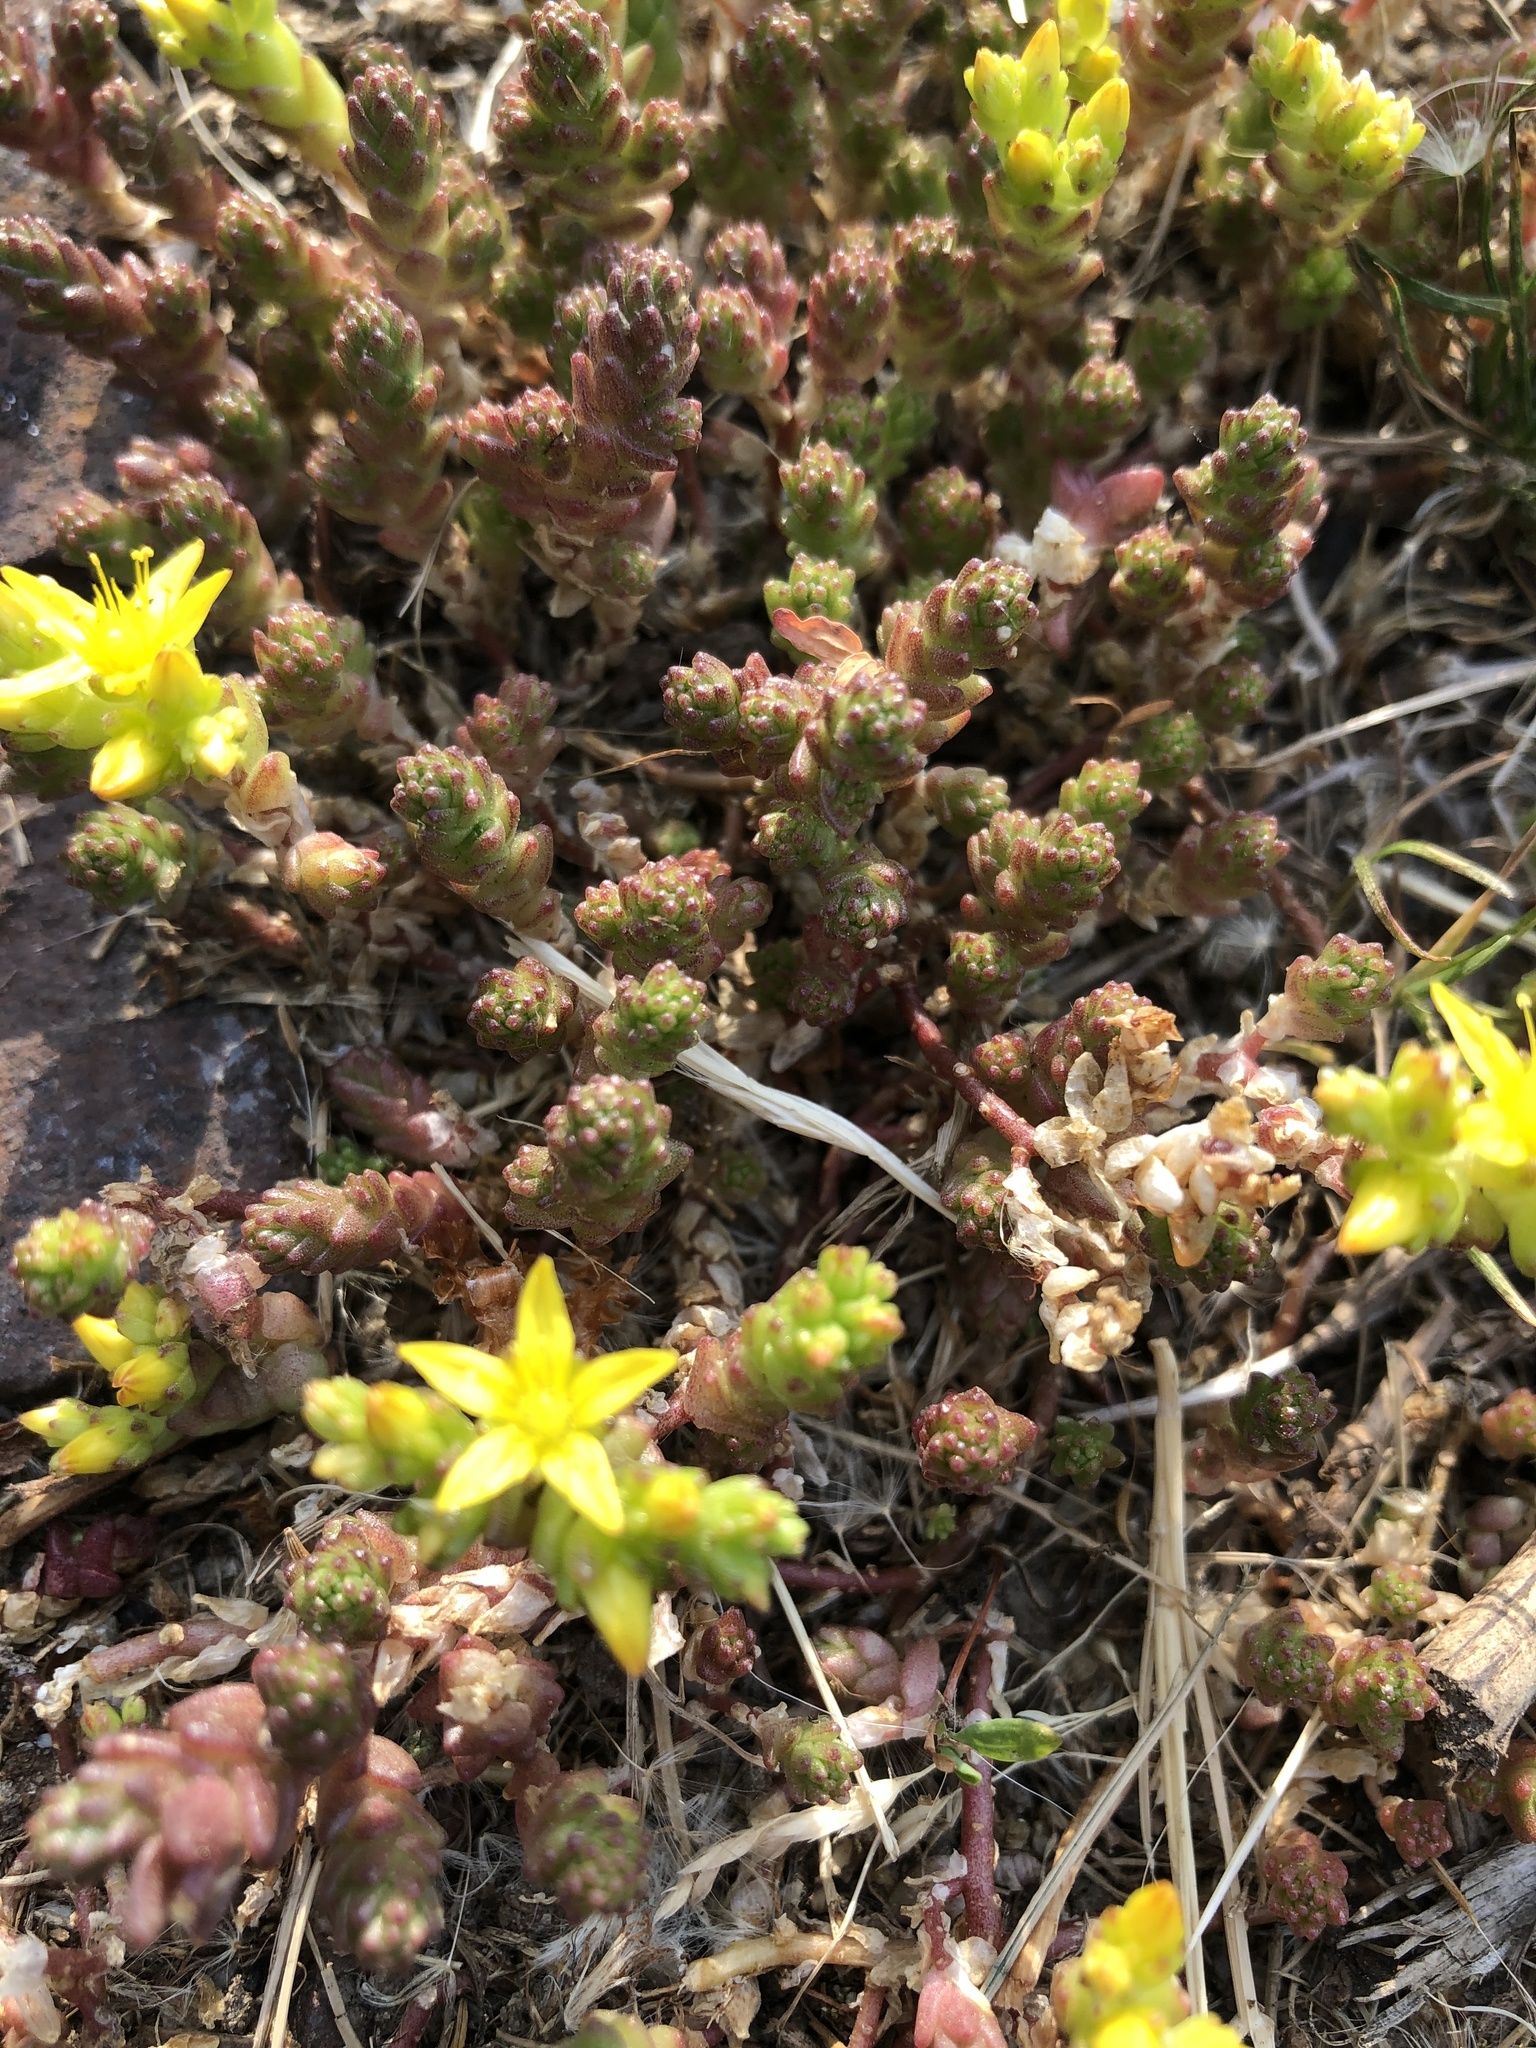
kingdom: Plantae
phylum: Tracheophyta
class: Magnoliopsida
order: Saxifragales
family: Crassulaceae
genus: Sedum
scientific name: Sedum acre
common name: Biting stonecrop
